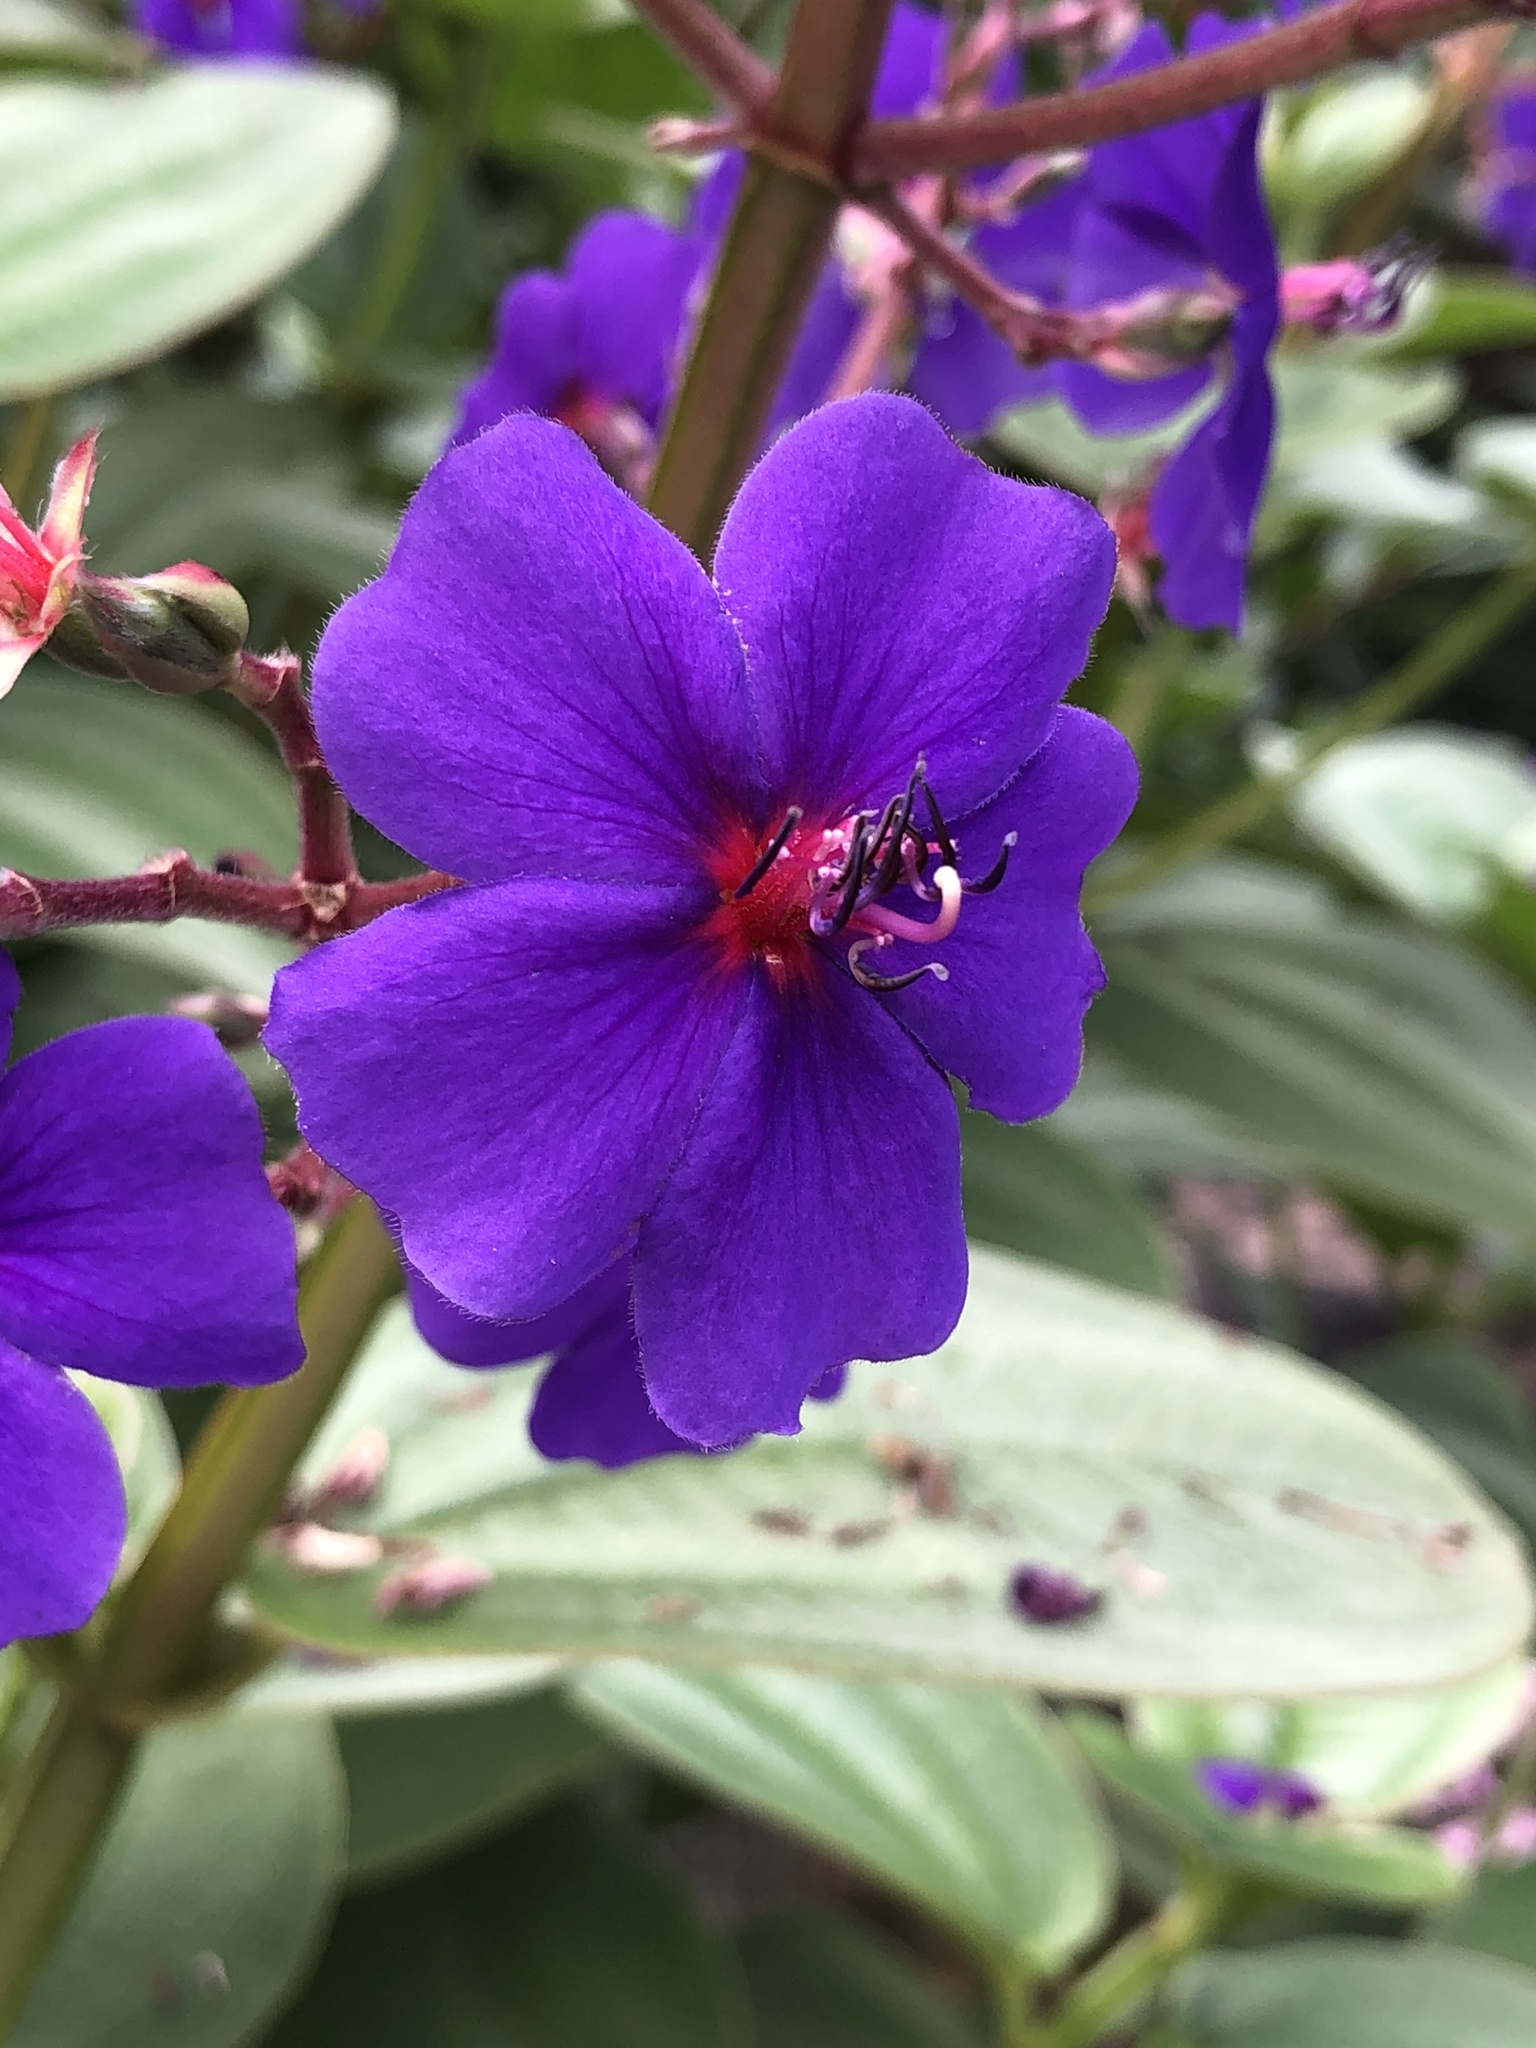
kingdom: Plantae
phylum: Tracheophyta
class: Magnoliopsida
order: Myrtales
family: Melastomataceae
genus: Pleroma
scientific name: Pleroma heteromallum
